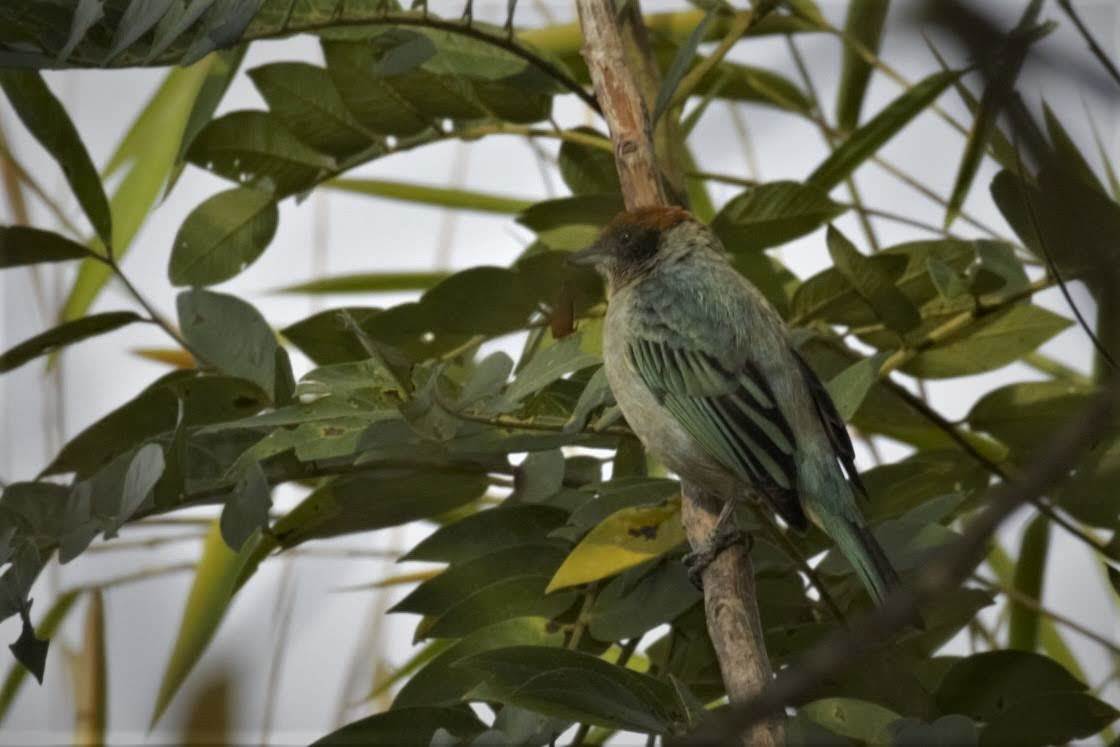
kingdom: Animalia
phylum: Chordata
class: Aves
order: Passeriformes
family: Thraupidae
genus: Stilpnia
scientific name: Stilpnia vitriolina
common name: Scrub tanager
